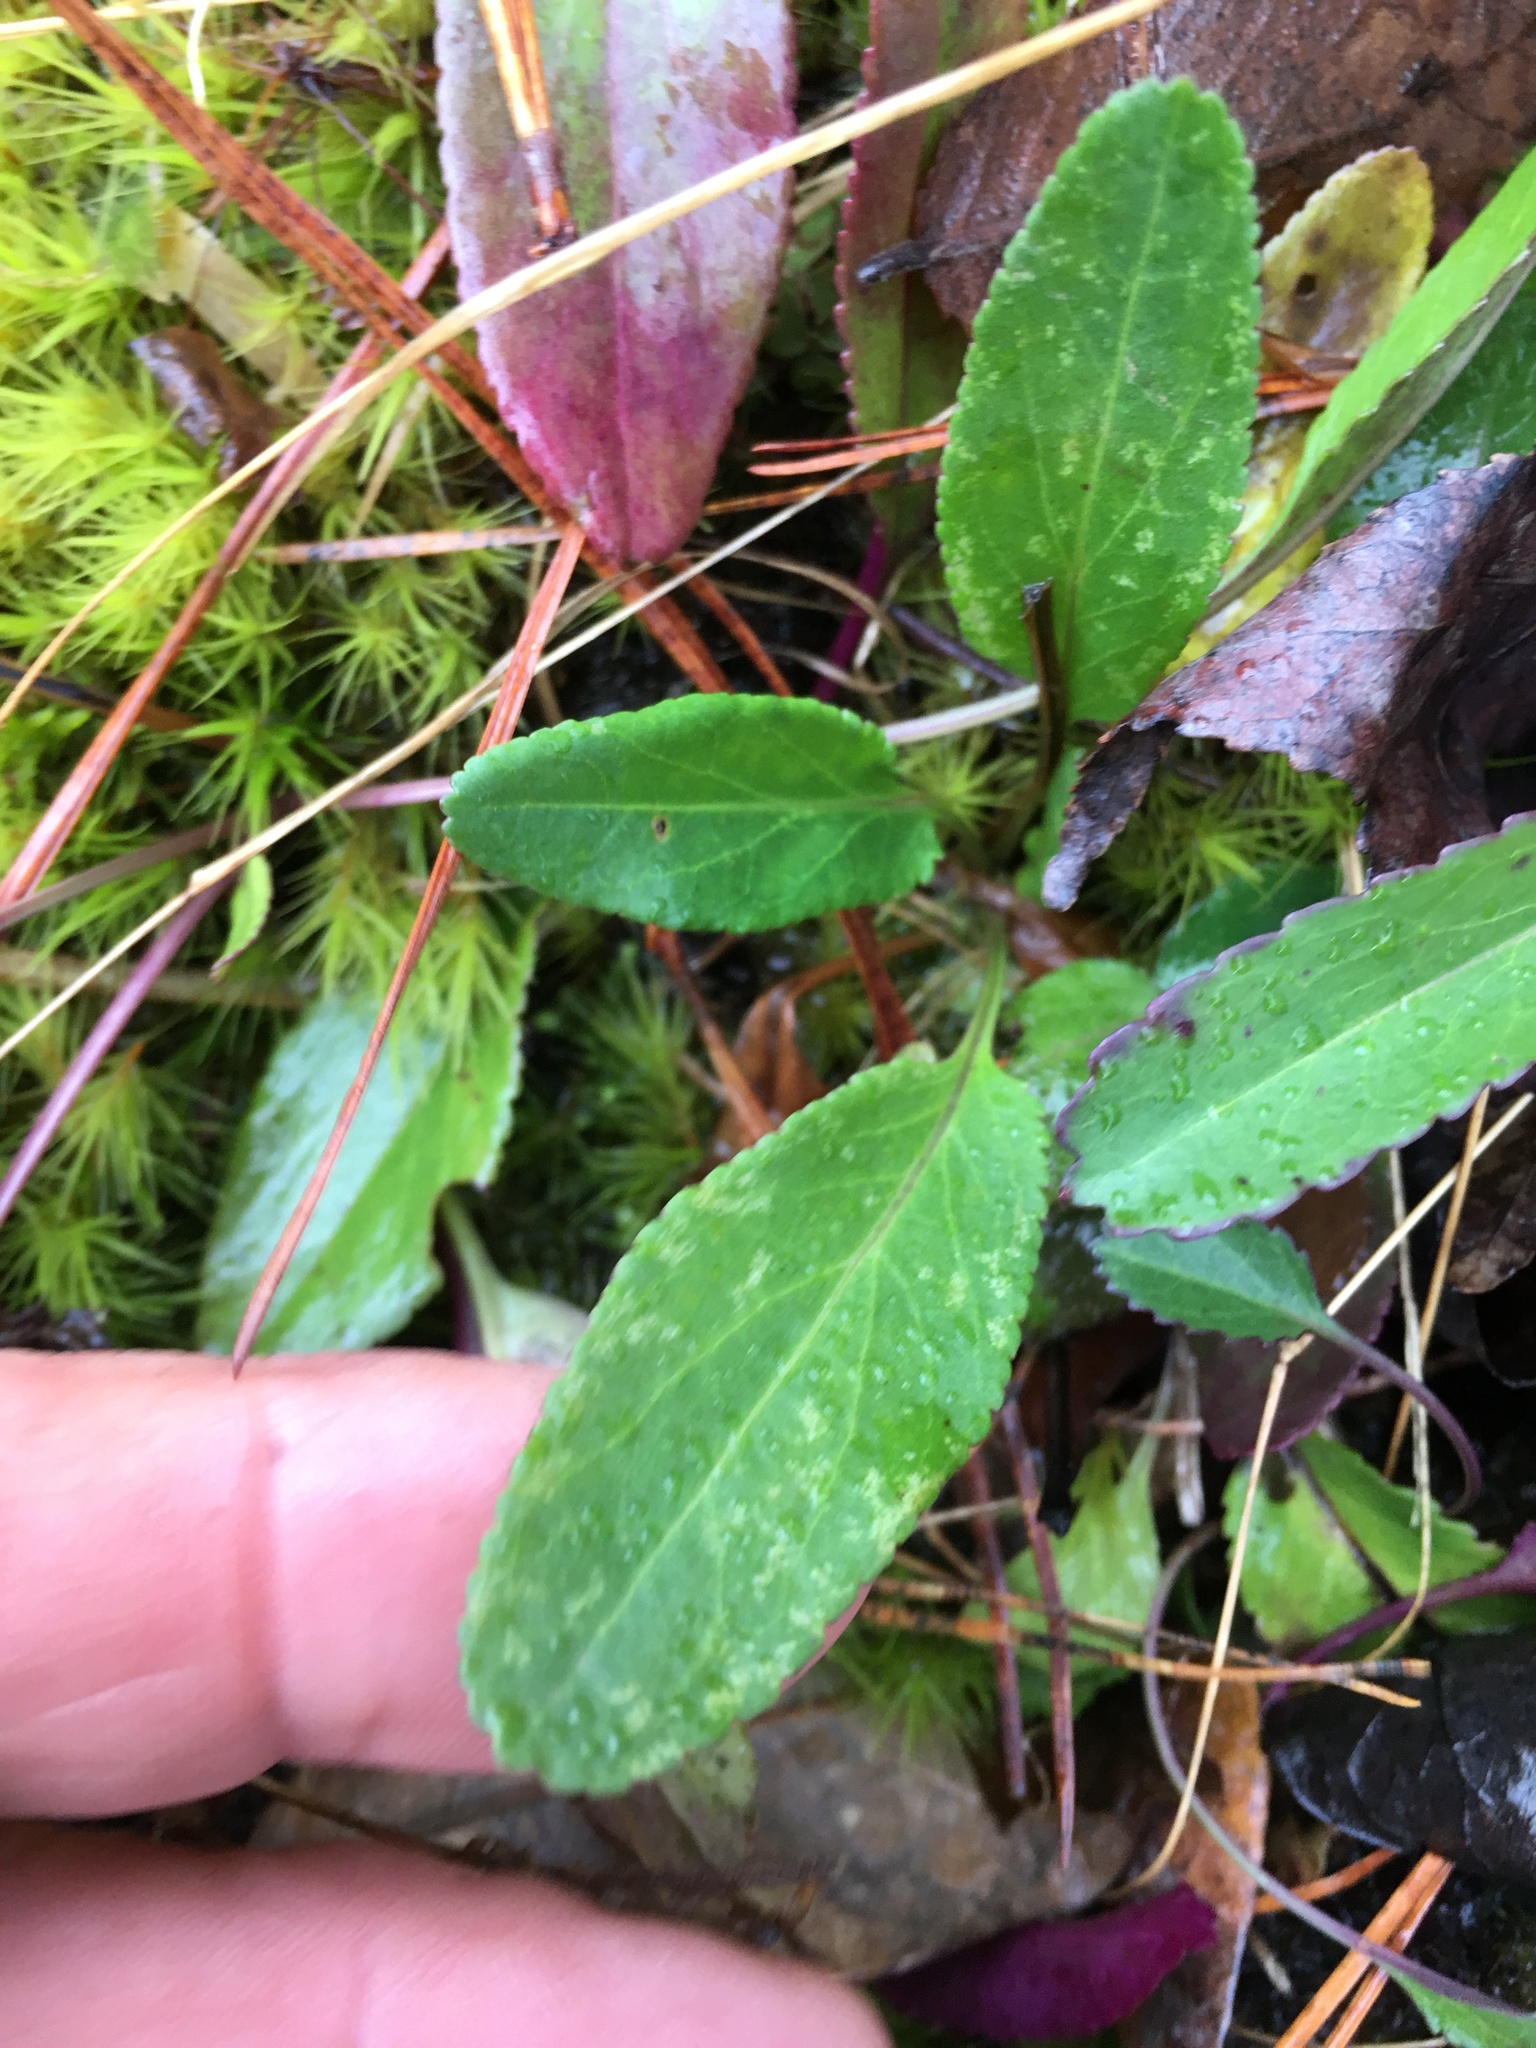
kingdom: Plantae
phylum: Tracheophyta
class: Magnoliopsida
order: Asterales
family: Asteraceae
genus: Packera
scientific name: Packera anonyma
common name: Small ragwort
